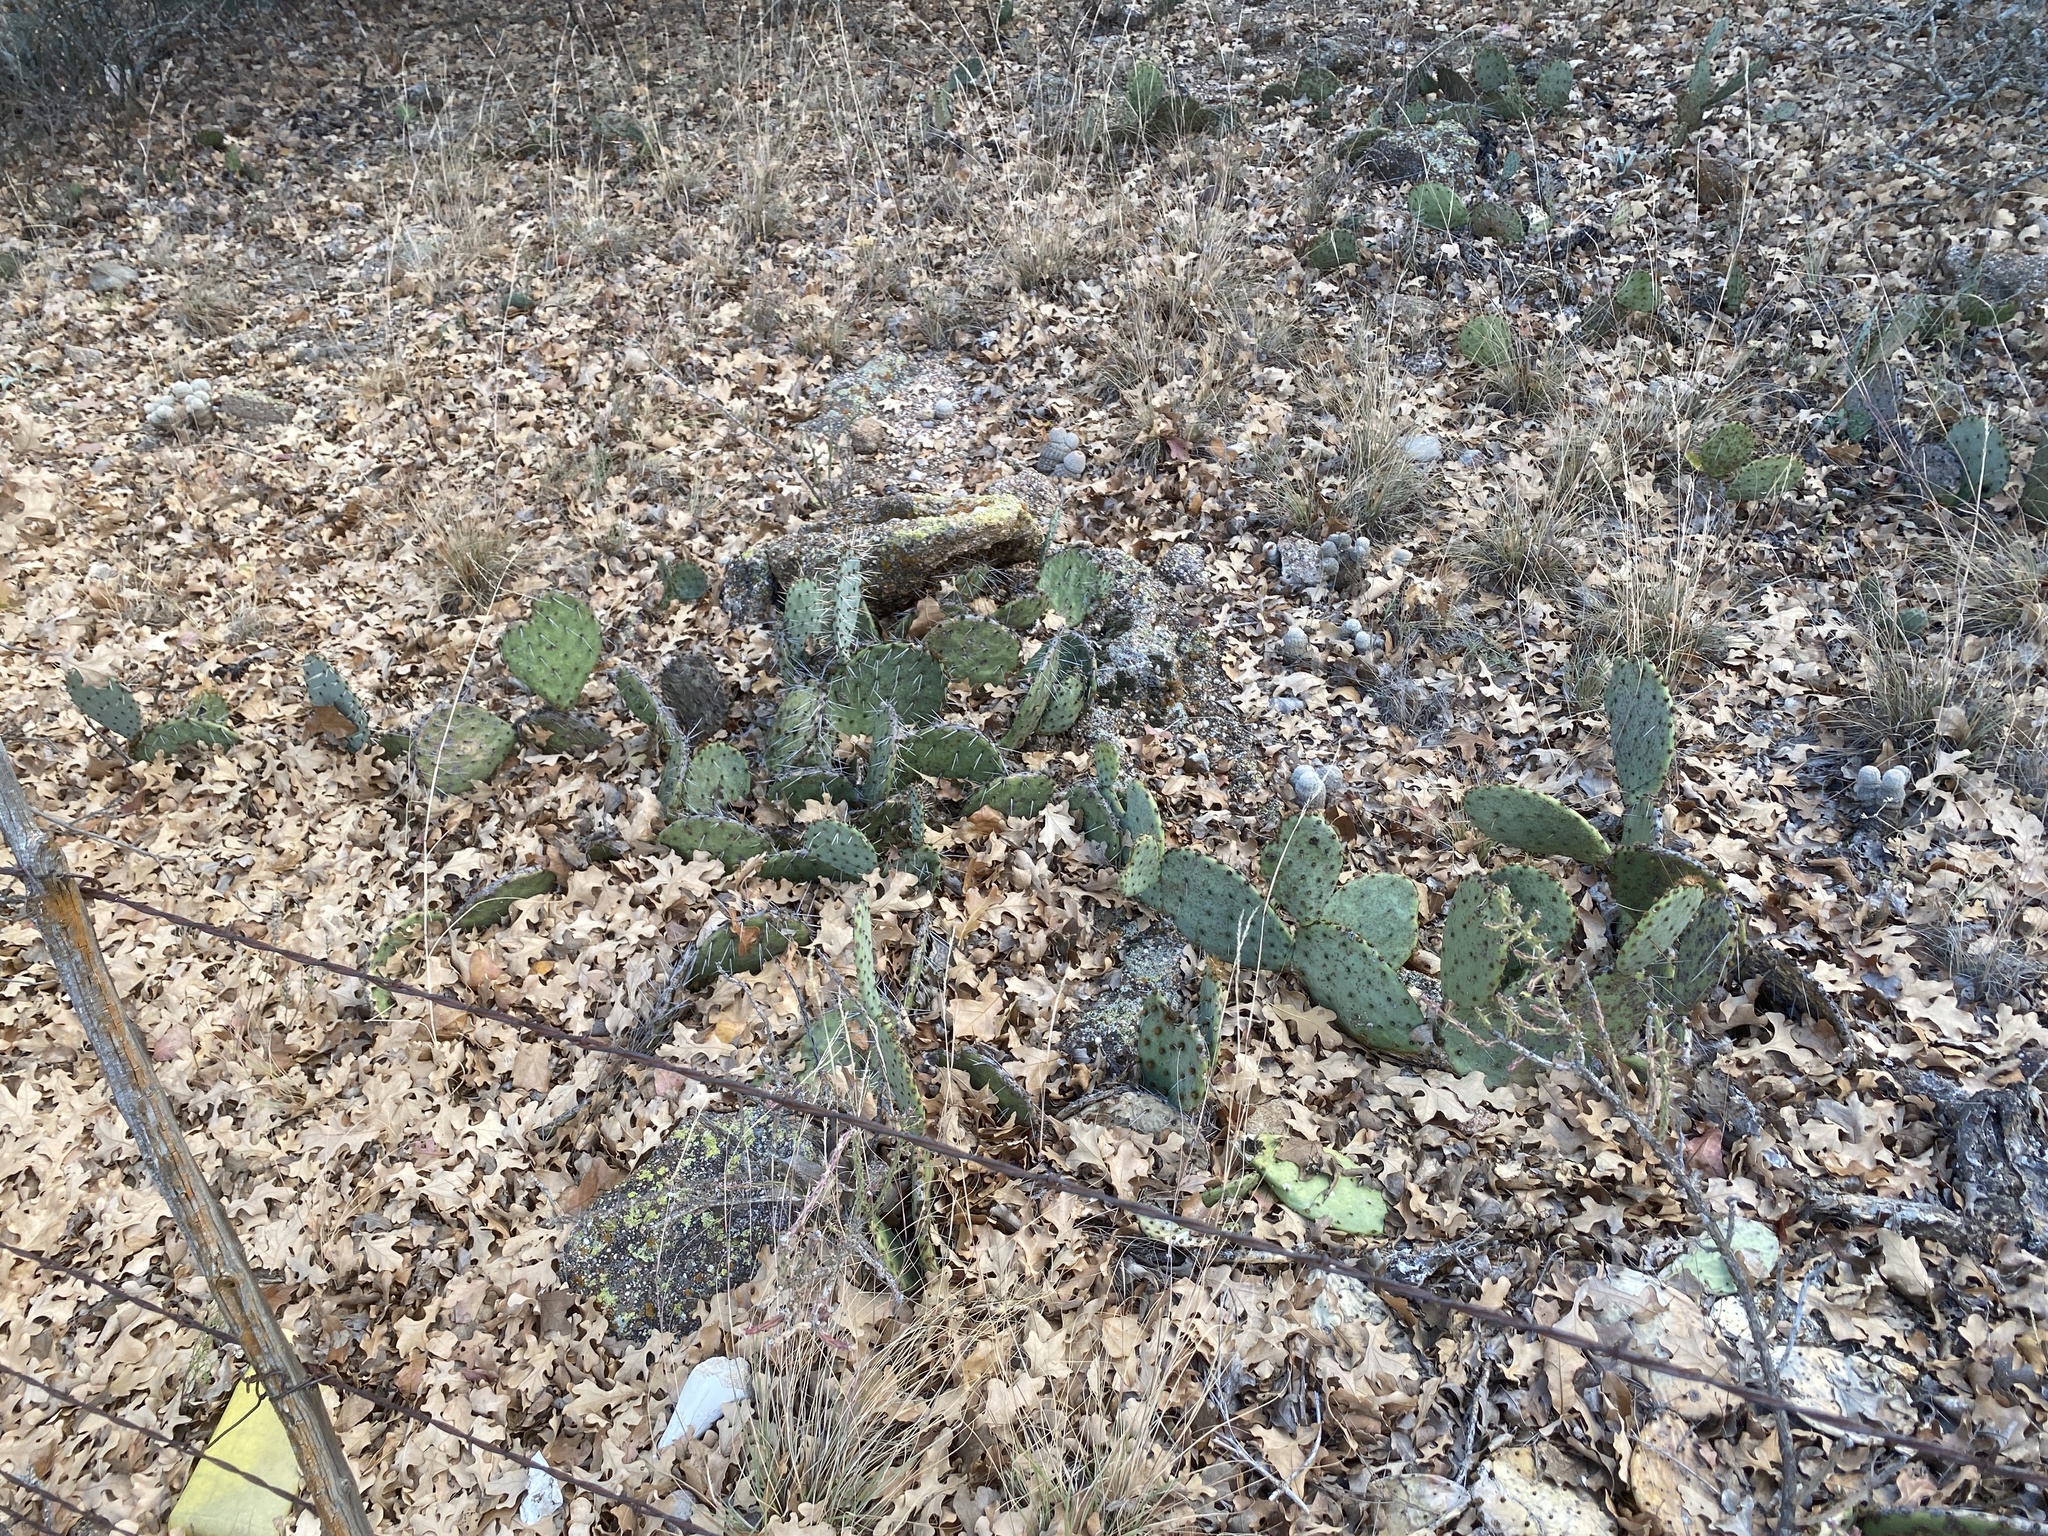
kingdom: Plantae
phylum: Tracheophyta
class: Magnoliopsida
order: Caryophyllales
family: Cactaceae
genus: Opuntia
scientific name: Opuntia phaeacantha
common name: New mexico prickly-pear
